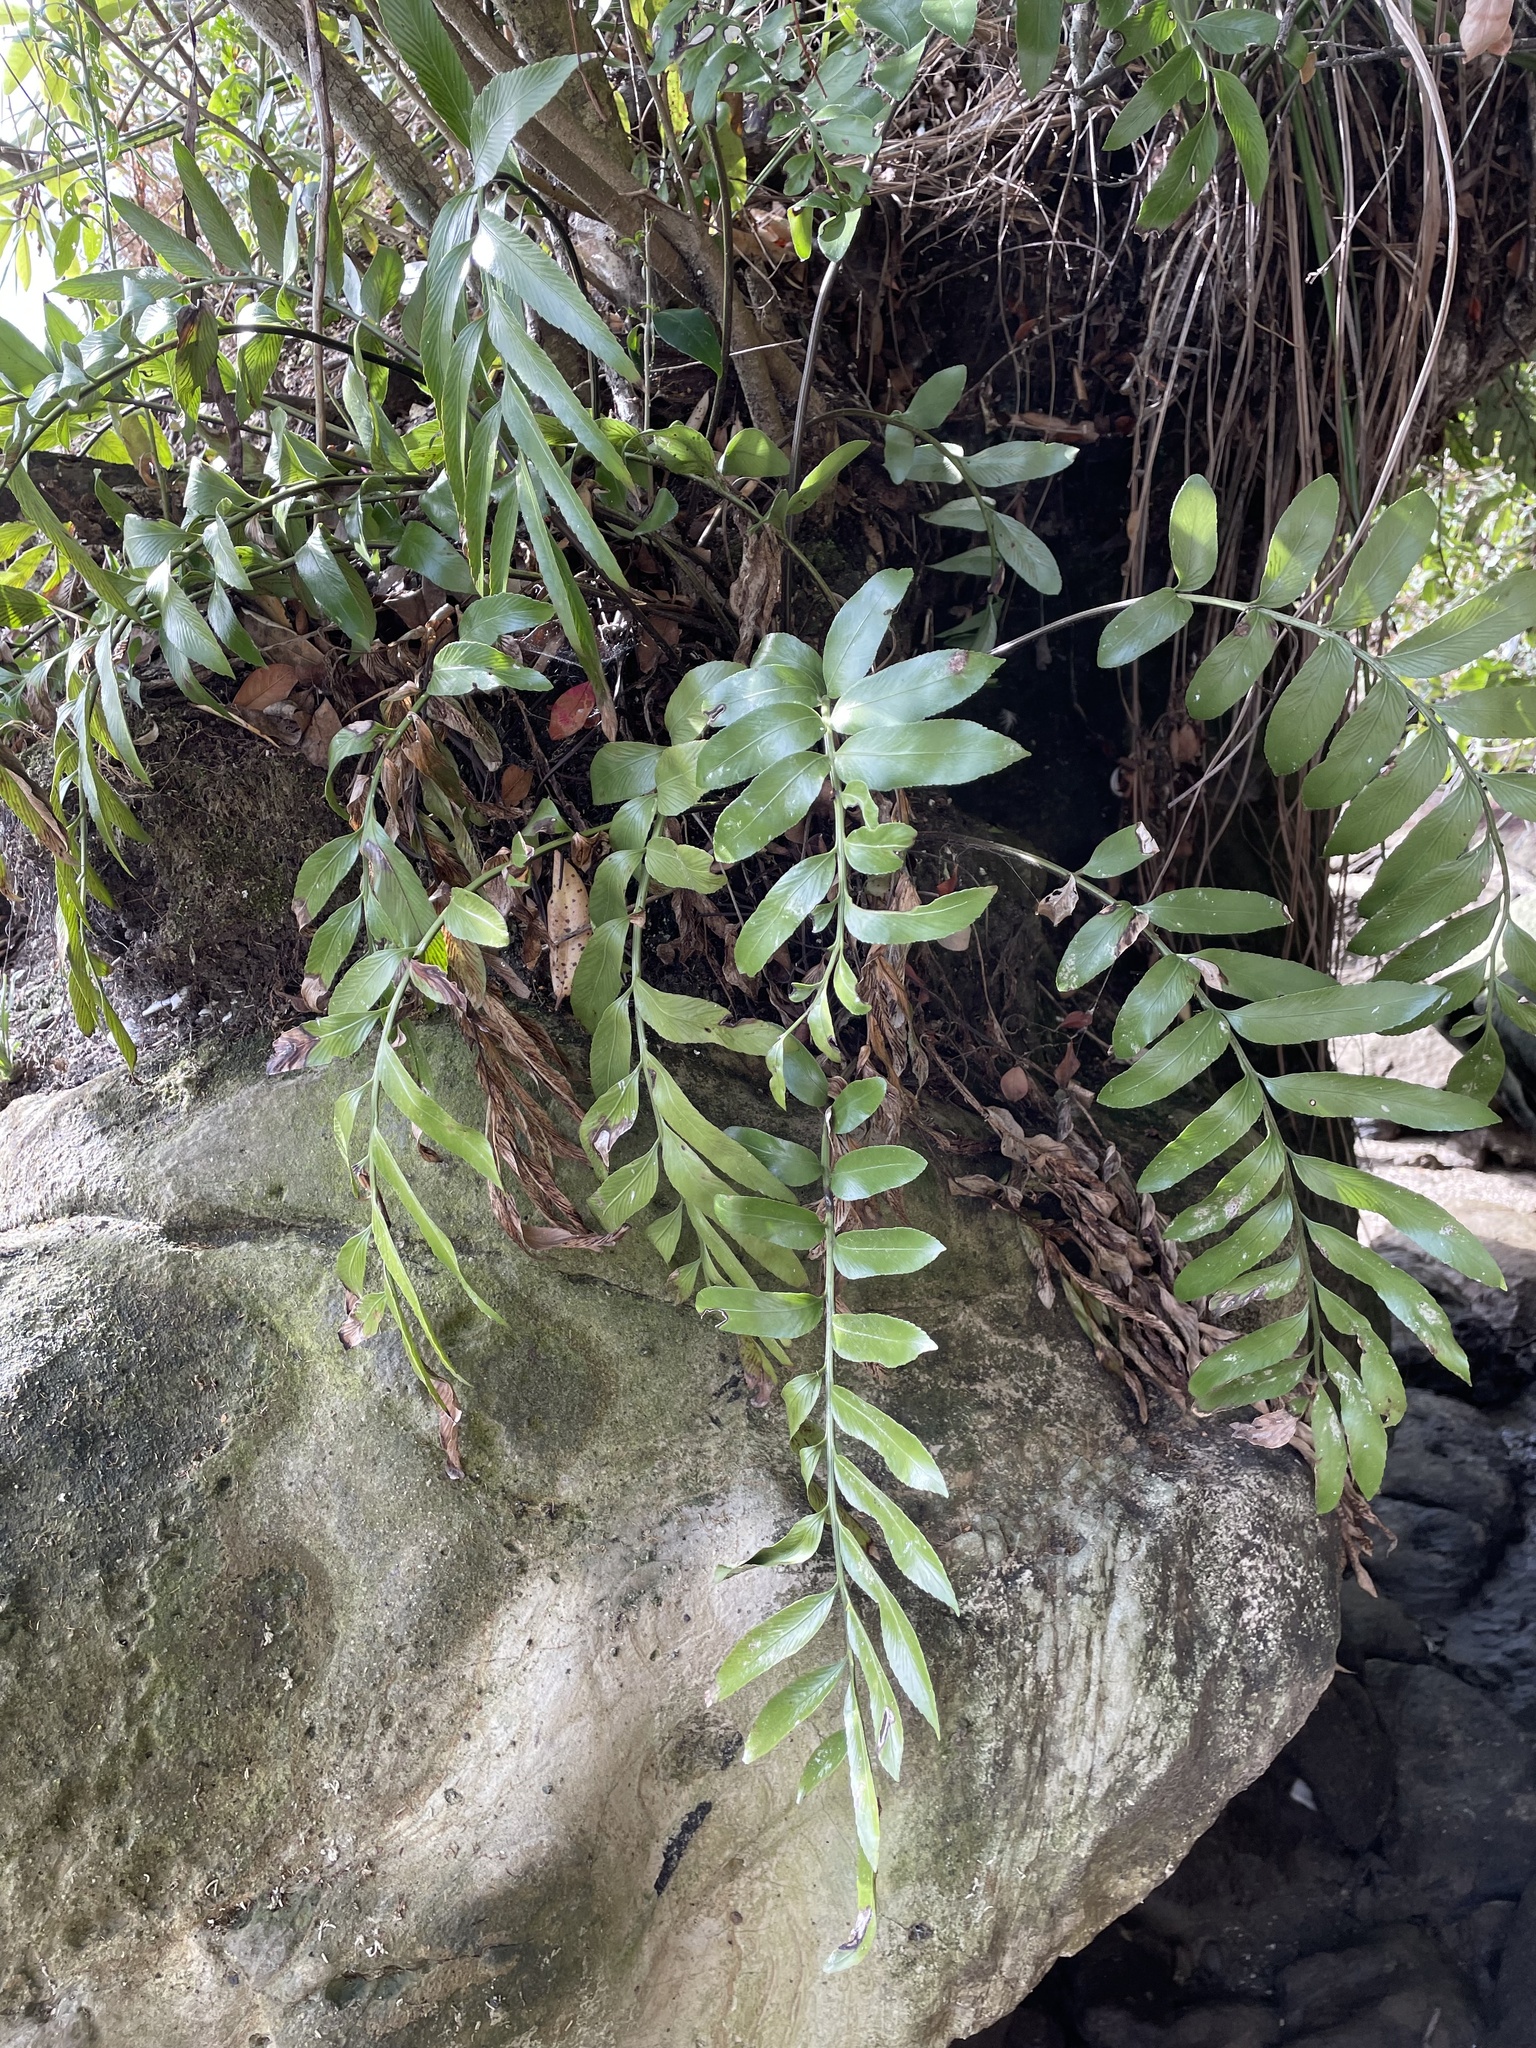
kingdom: Plantae
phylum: Tracheophyta
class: Polypodiopsida
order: Polypodiales
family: Aspleniaceae
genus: Asplenium
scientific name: Asplenium oblongifolium
